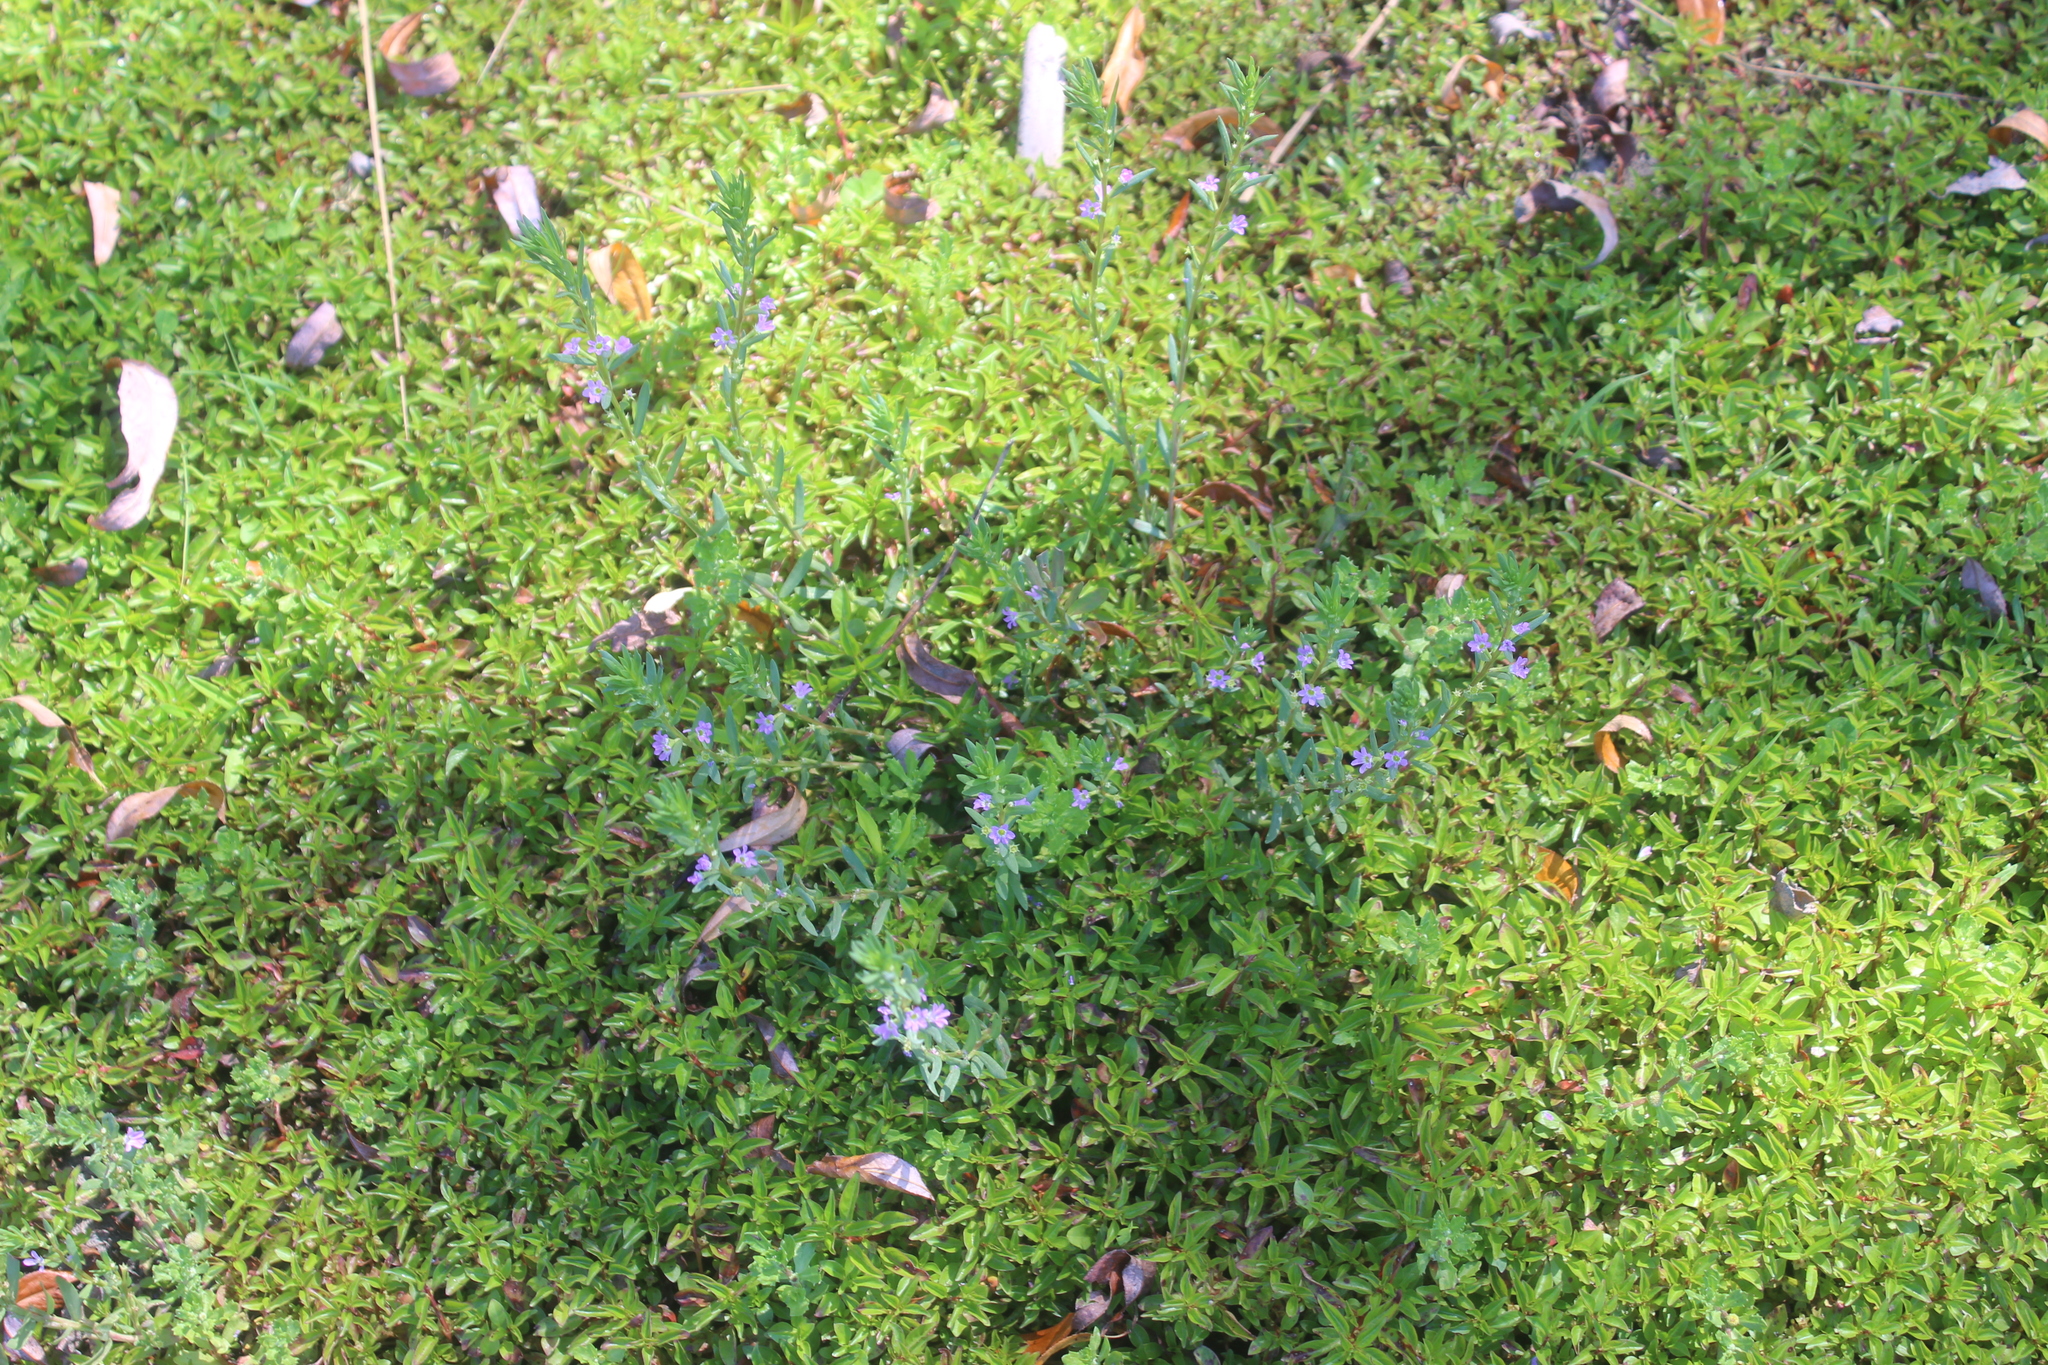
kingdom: Plantae
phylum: Tracheophyta
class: Magnoliopsida
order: Myrtales
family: Lythraceae
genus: Lythrum
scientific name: Lythrum hyssopifolia
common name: Grass-poly
